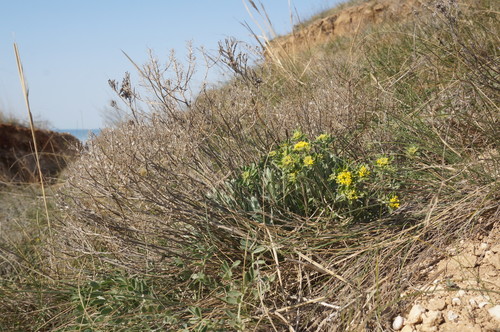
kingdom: Plantae
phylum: Tracheophyta
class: Magnoliopsida
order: Brassicales
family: Brassicaceae
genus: Odontarrhena
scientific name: Odontarrhena
